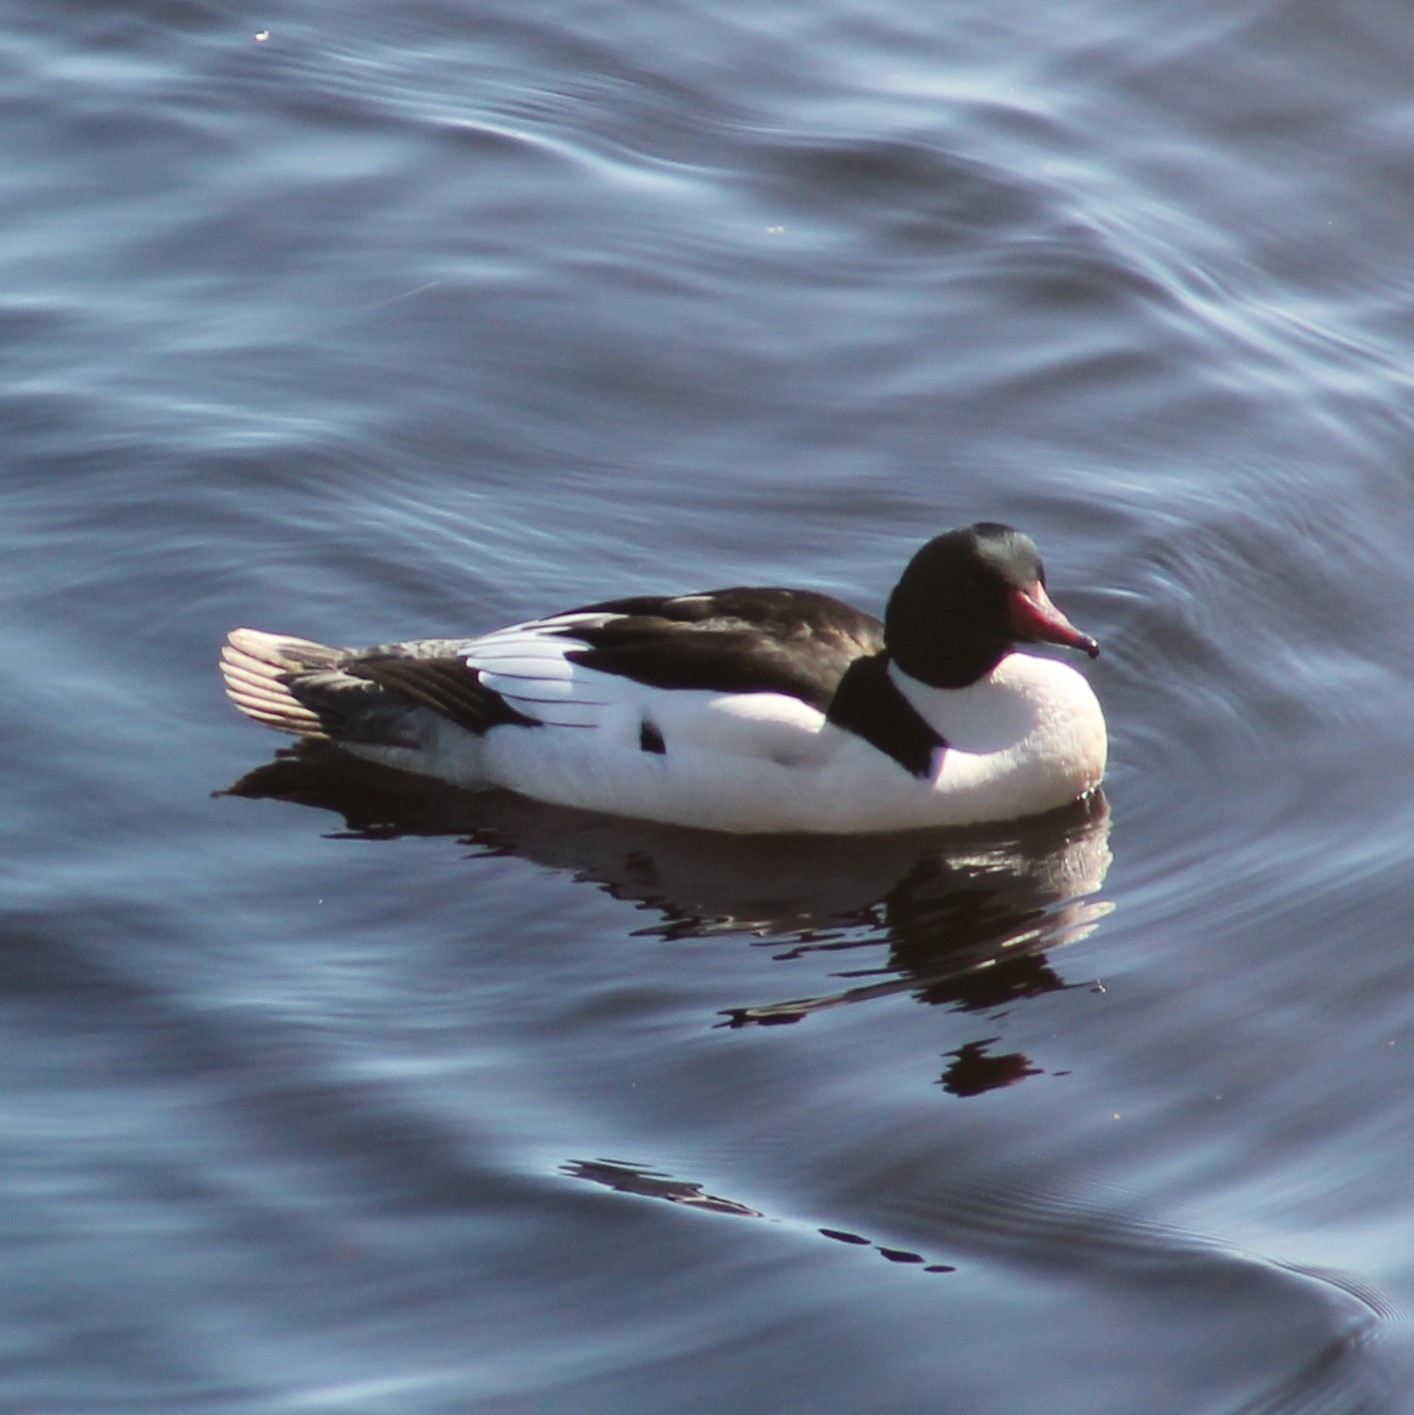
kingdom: Animalia
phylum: Chordata
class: Aves
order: Anseriformes
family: Anatidae
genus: Mergus
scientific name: Mergus merganser
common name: Common merganser
